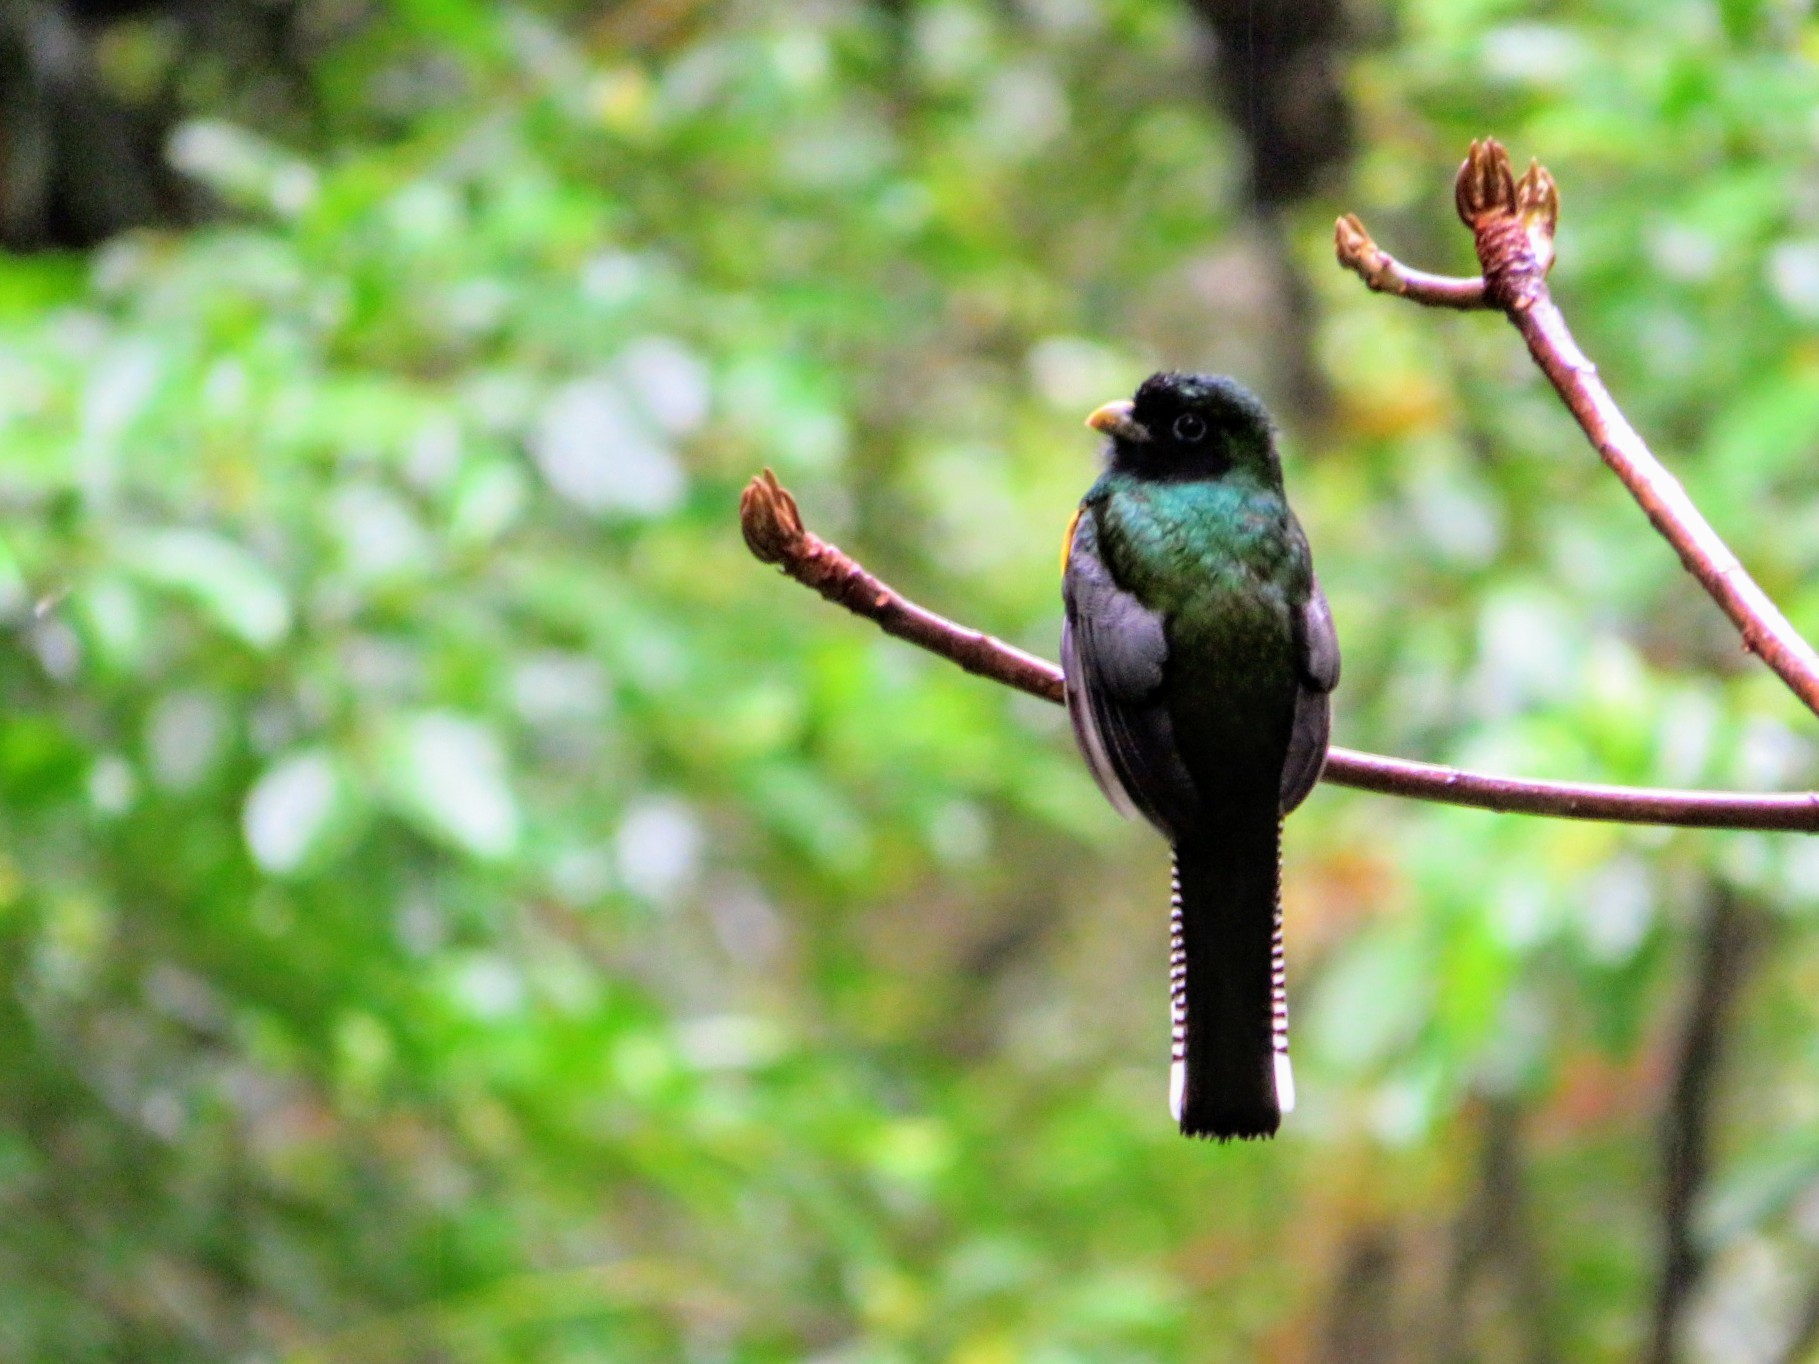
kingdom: Animalia
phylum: Chordata
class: Aves
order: Trogoniformes
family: Trogonidae
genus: Trogon
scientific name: Trogon rufus
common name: Black-throated trogon
